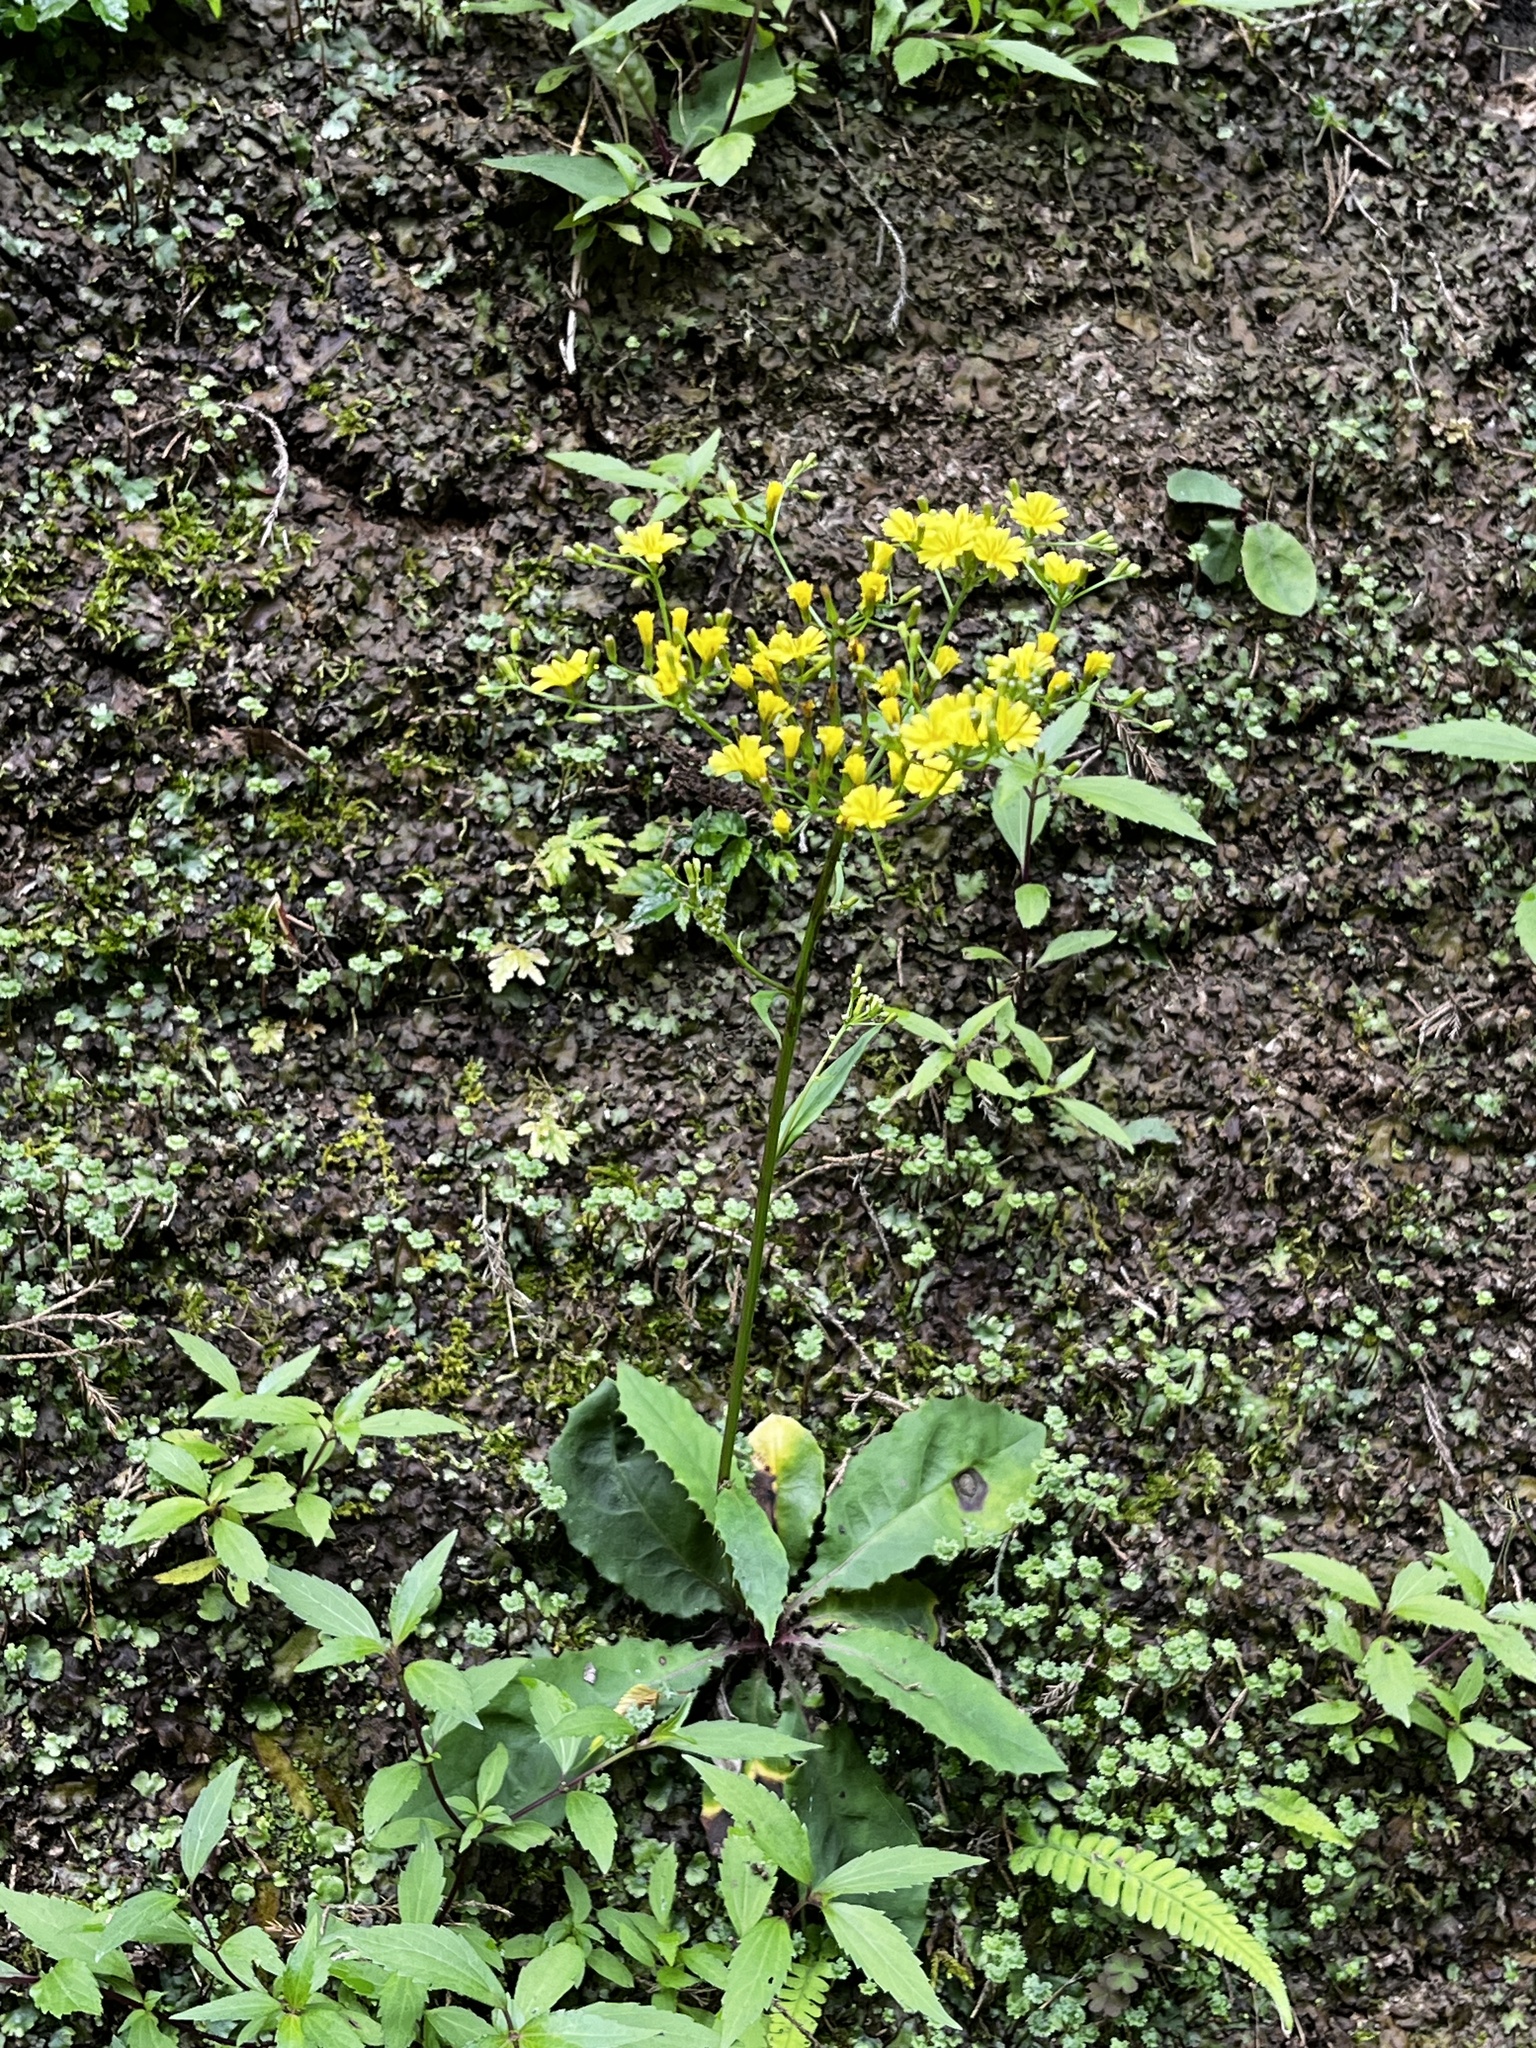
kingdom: Plantae
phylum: Tracheophyta
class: Magnoliopsida
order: Asterales
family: Asteraceae
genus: Ixeridium
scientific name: Ixeridium laevigatum
